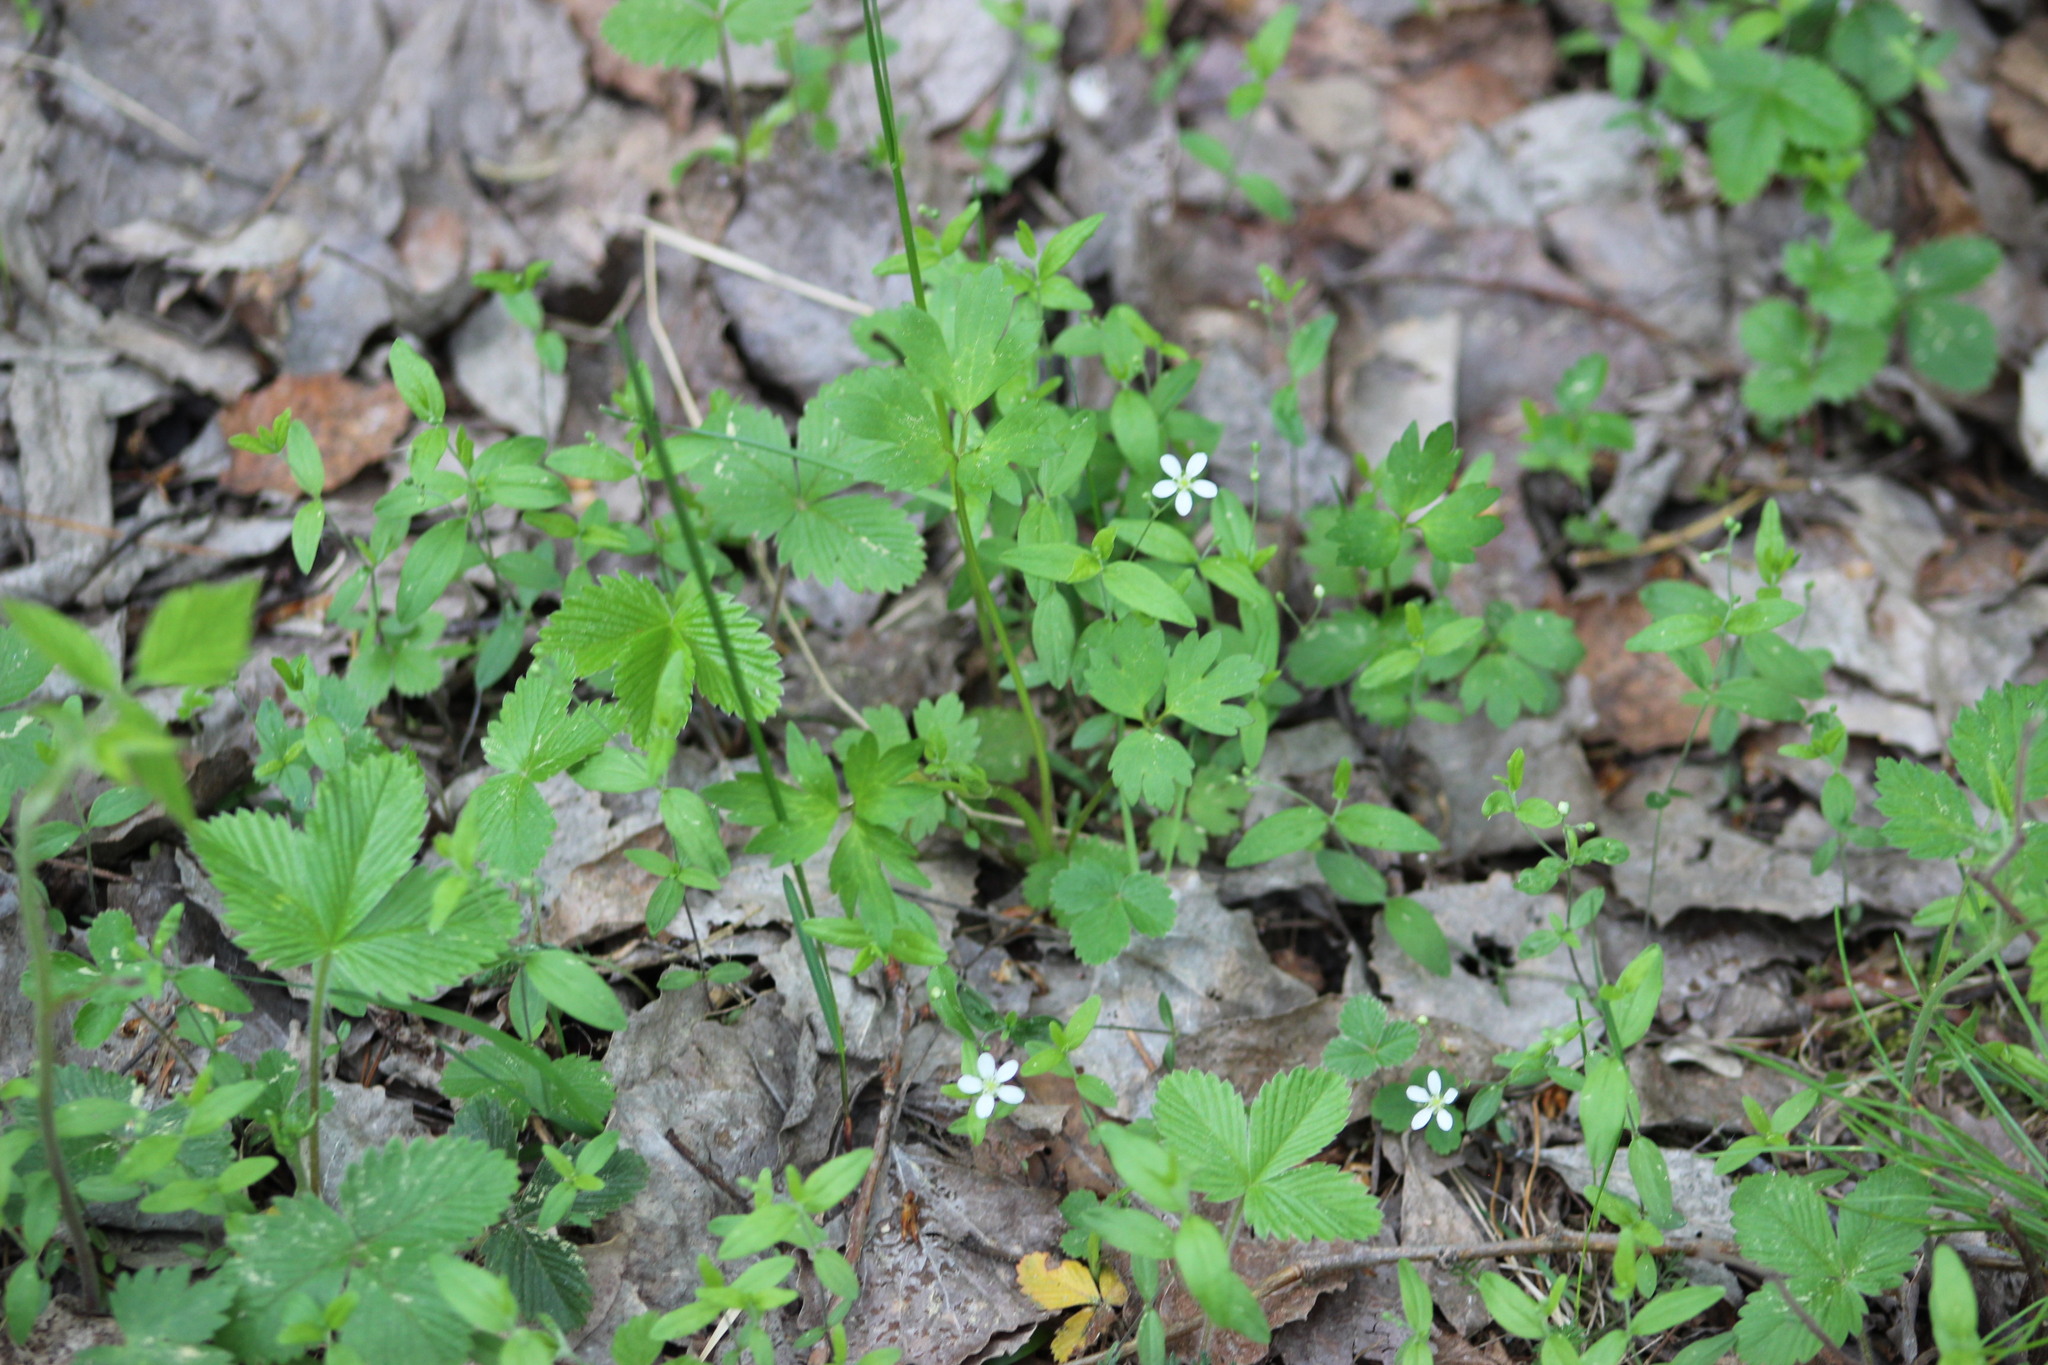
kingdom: Plantae
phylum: Tracheophyta
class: Magnoliopsida
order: Caryophyllales
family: Caryophyllaceae
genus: Moehringia
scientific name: Moehringia lateriflora
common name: Blunt-leaved sandwort
